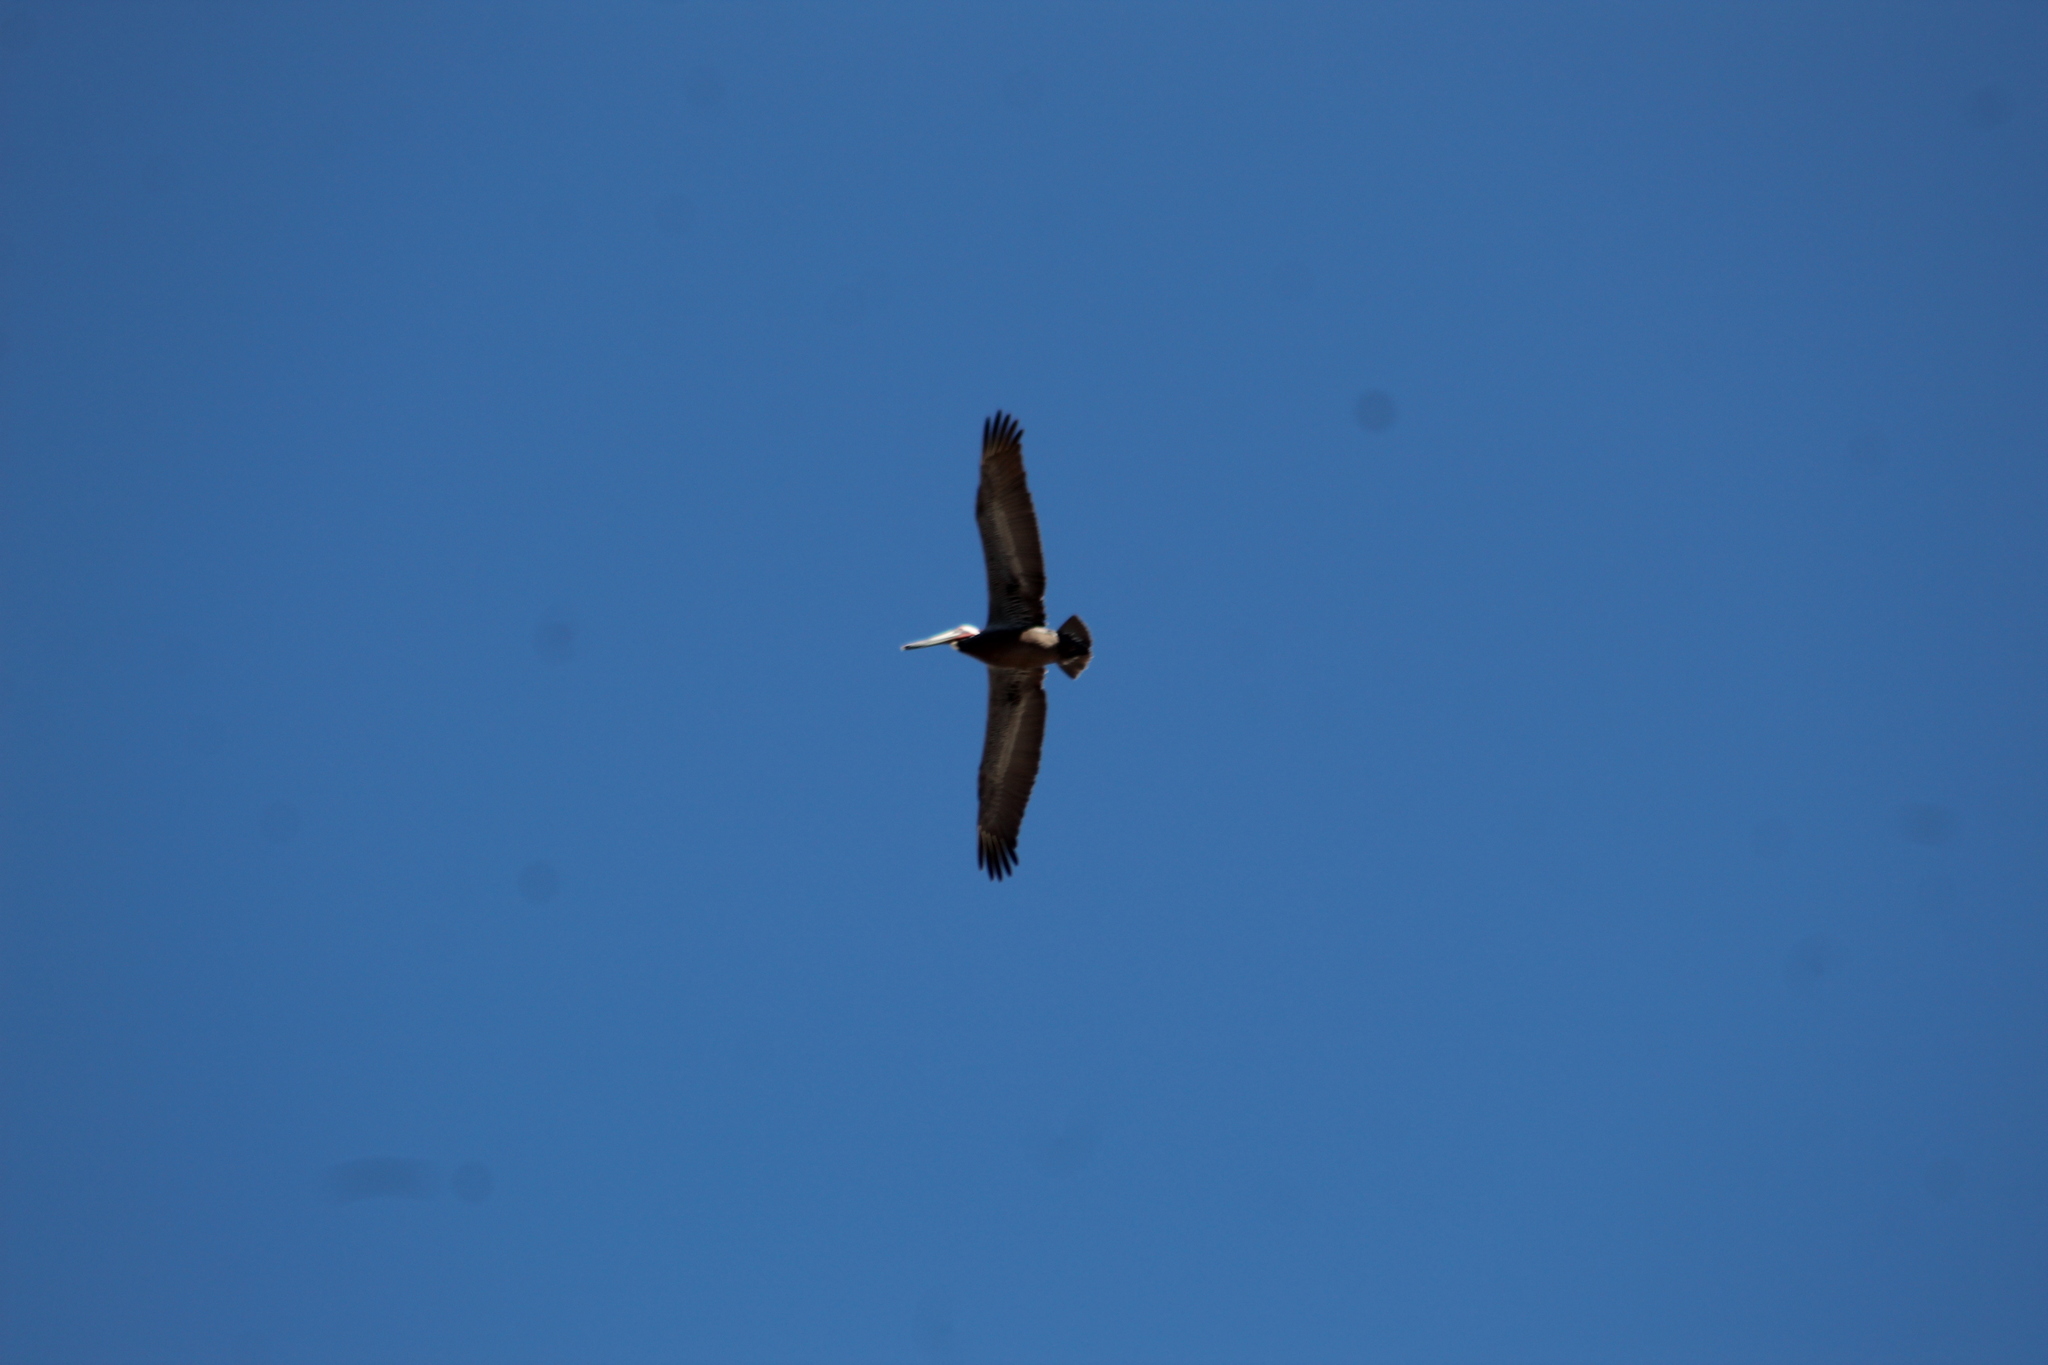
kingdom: Animalia
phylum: Chordata
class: Aves
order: Pelecaniformes
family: Pelecanidae
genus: Pelecanus
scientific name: Pelecanus occidentalis
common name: Brown pelican
